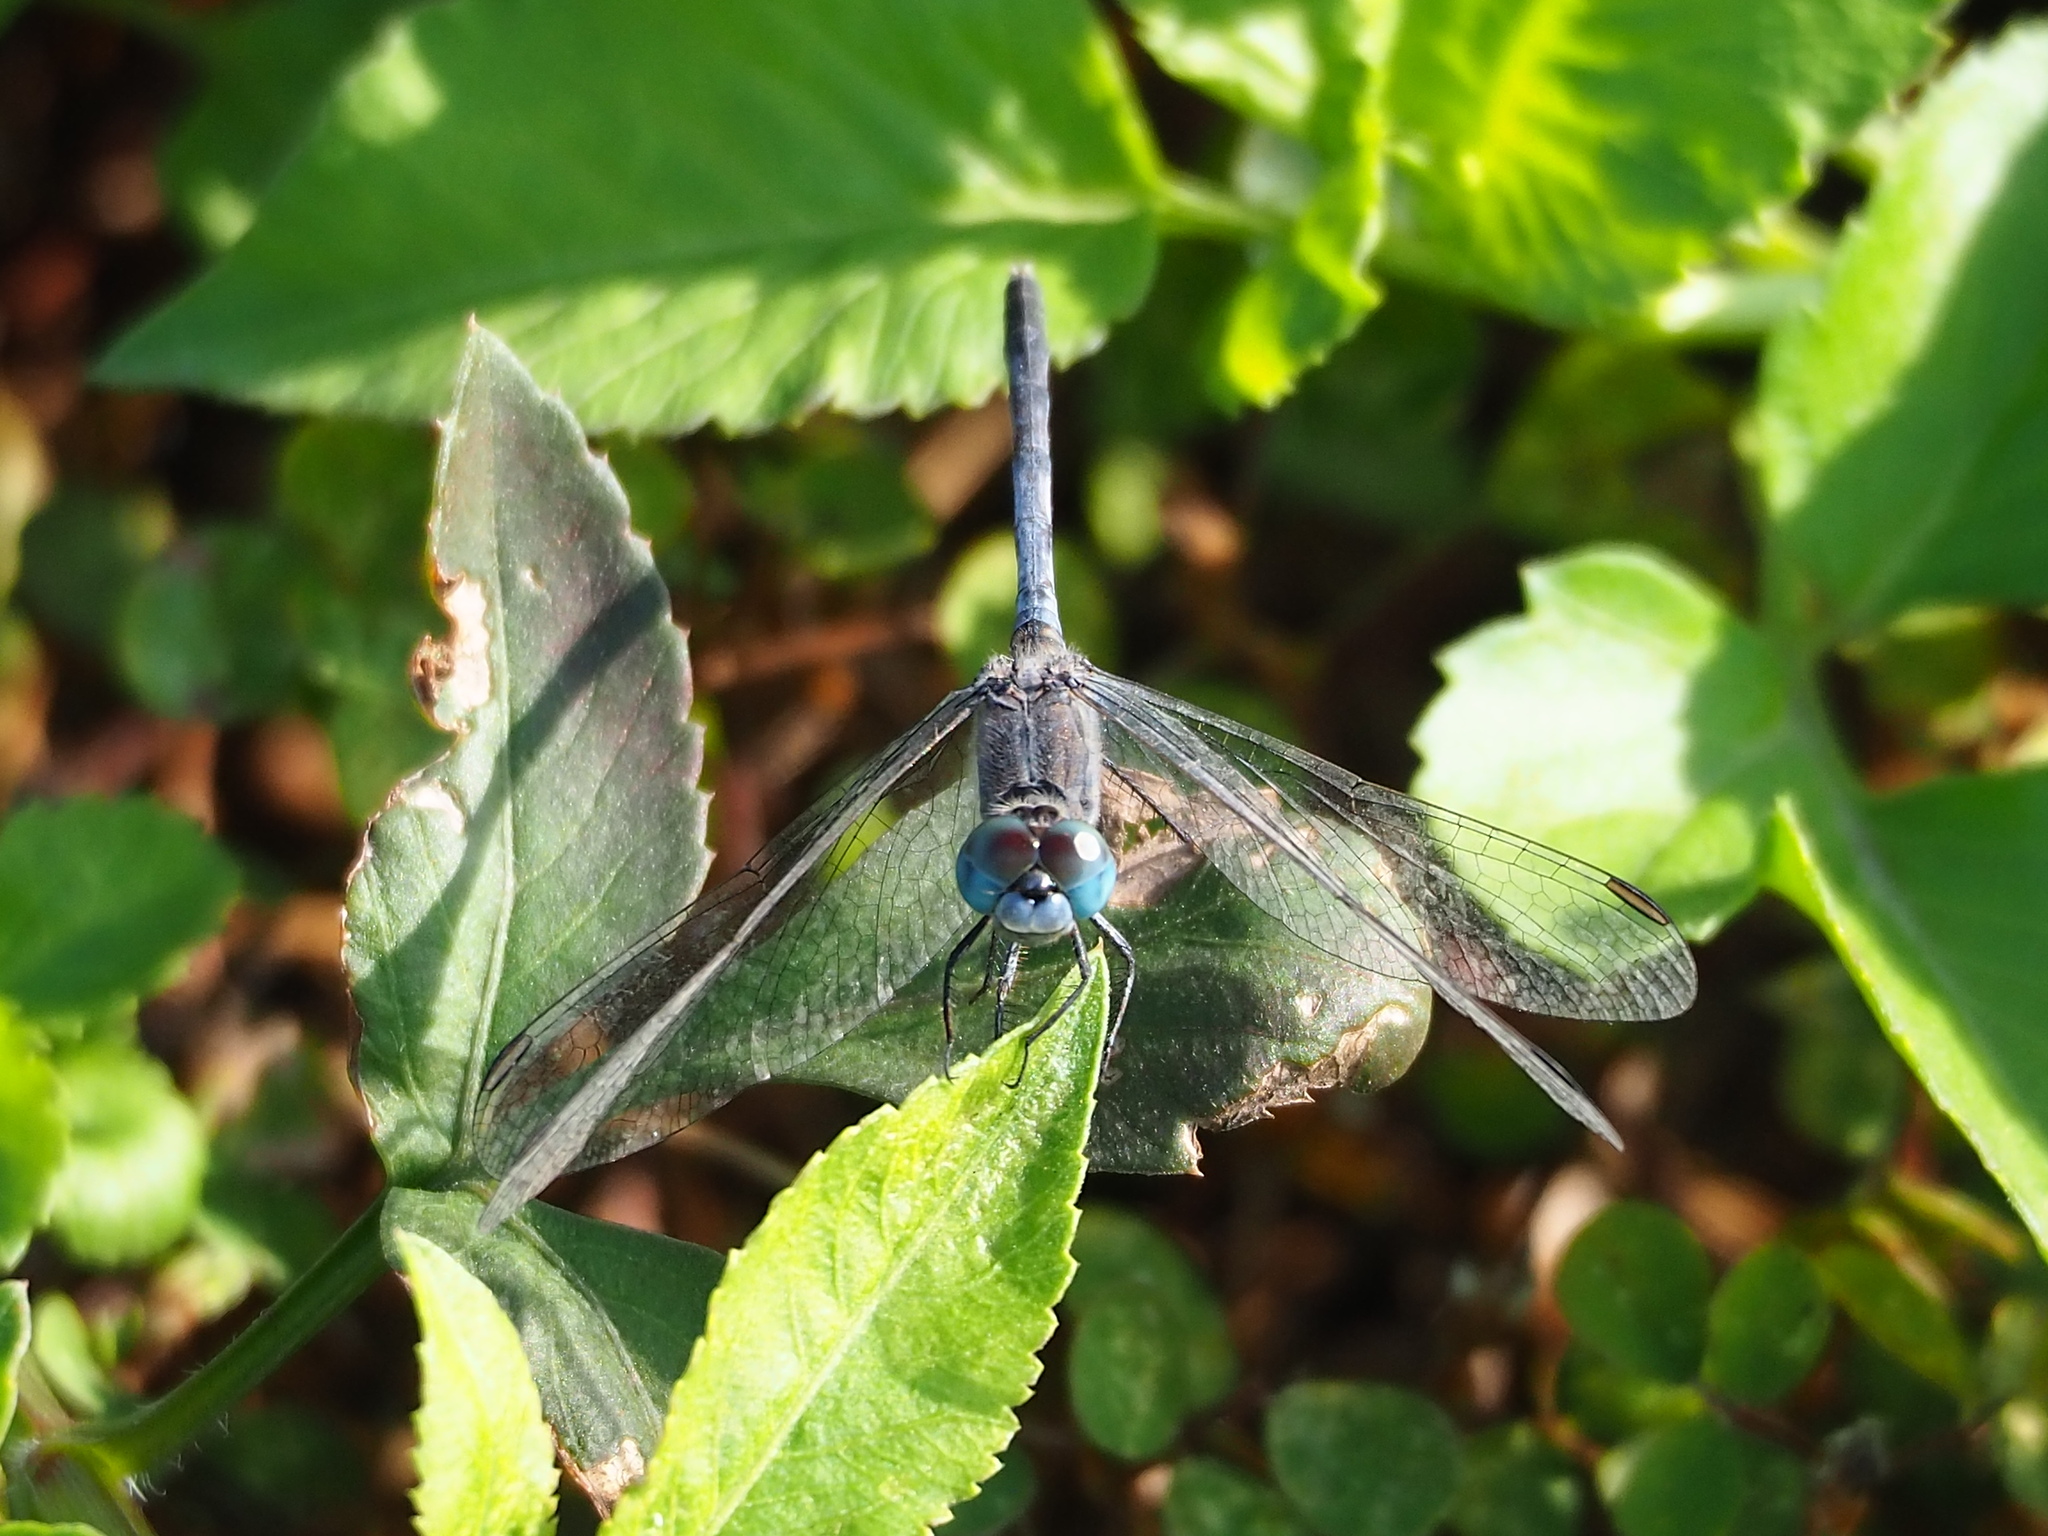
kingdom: Animalia
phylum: Arthropoda
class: Insecta
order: Odonata
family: Libellulidae
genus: Diplacodes
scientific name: Diplacodes trivialis
